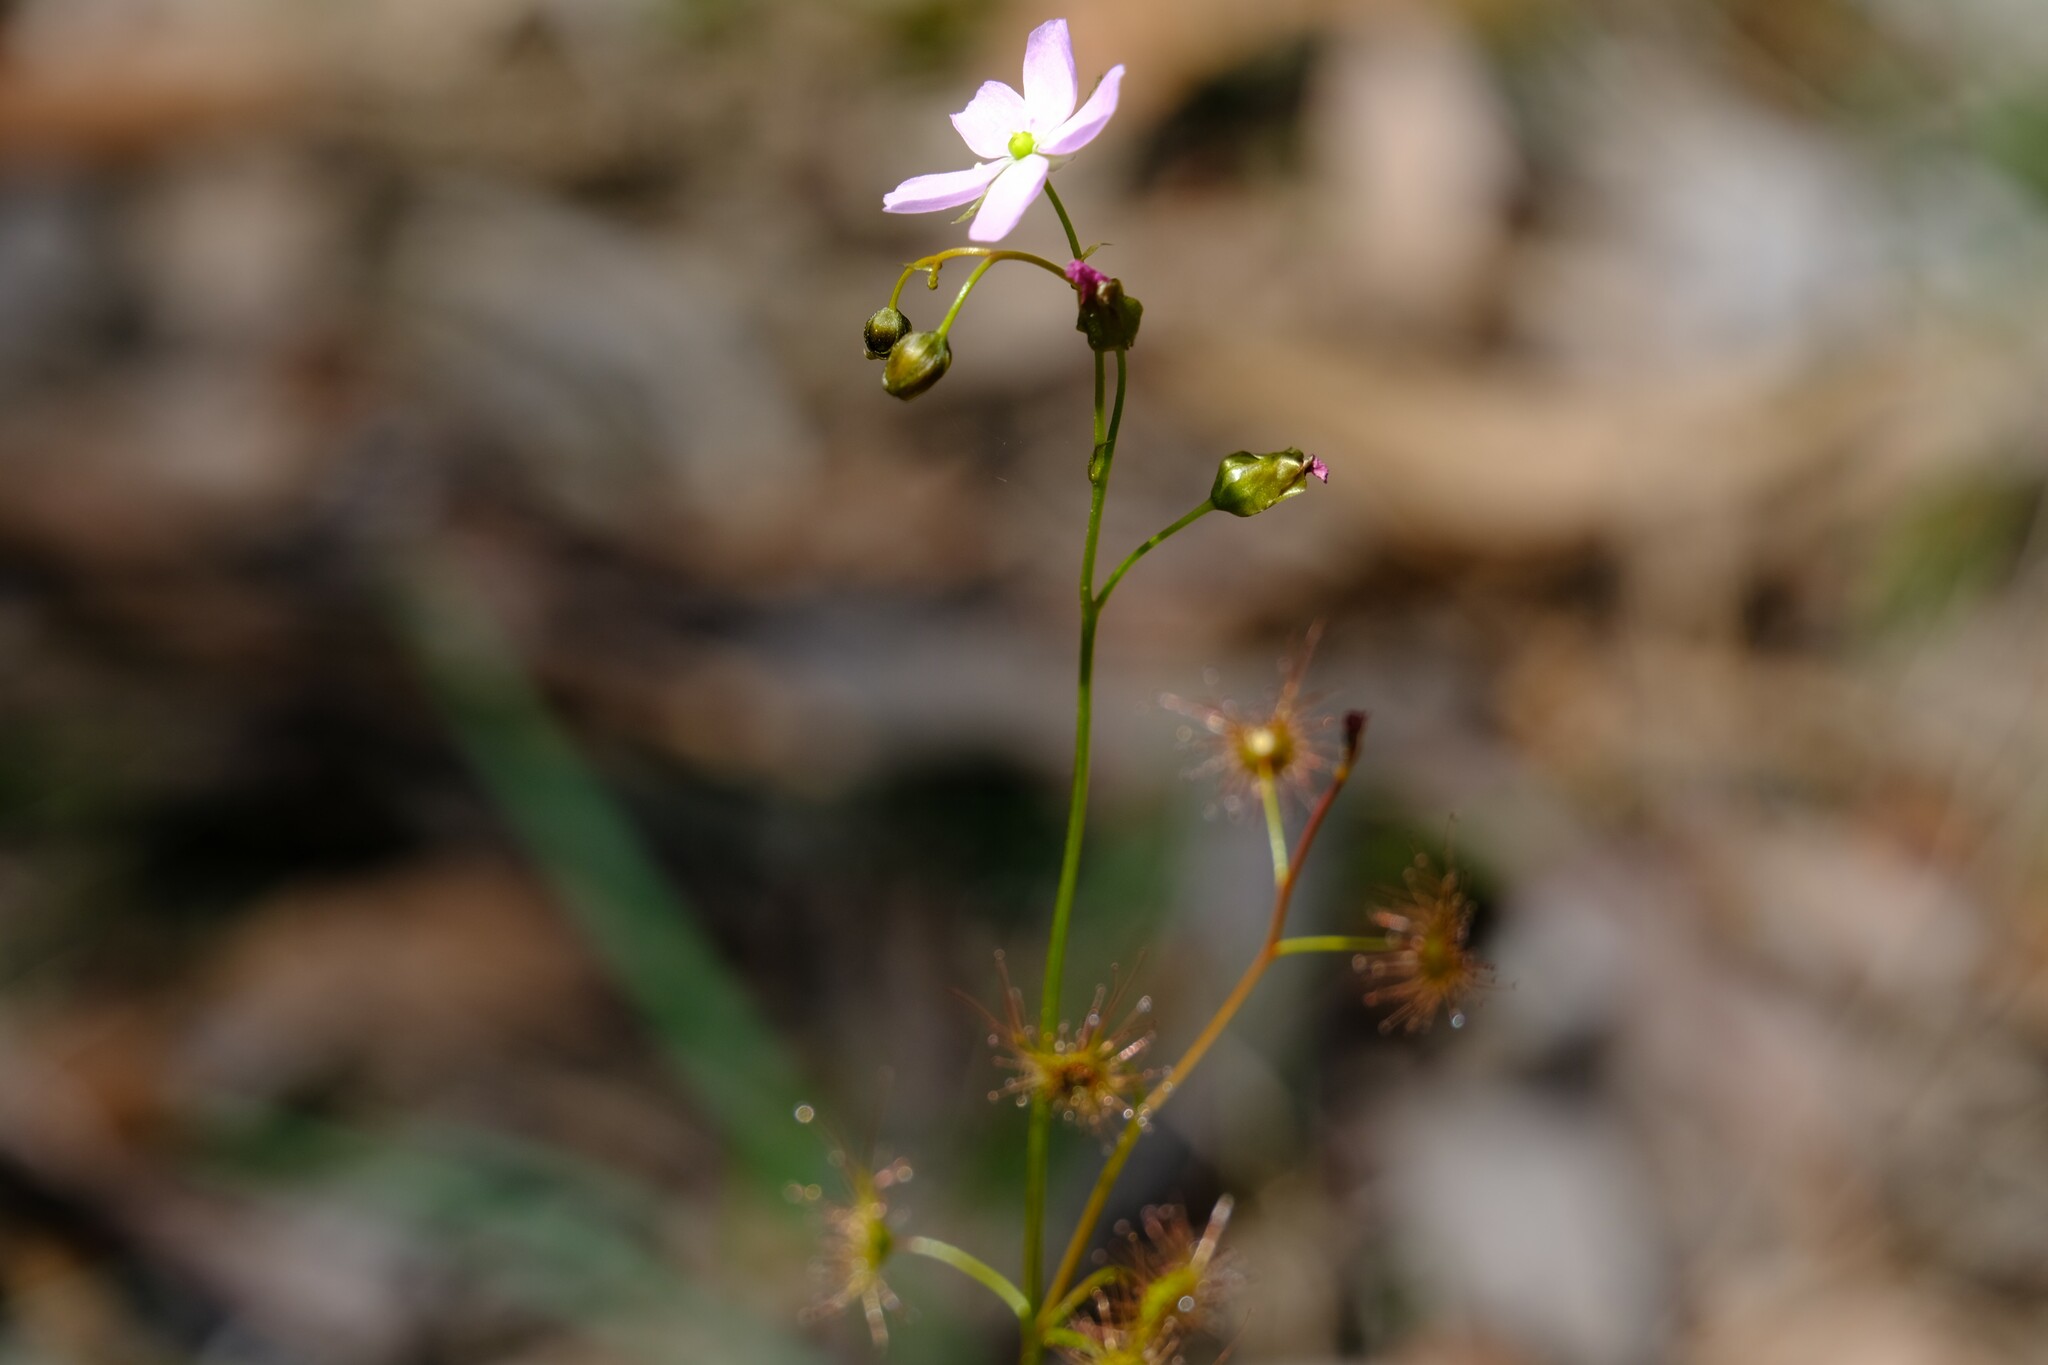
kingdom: Plantae
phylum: Tracheophyta
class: Magnoliopsida
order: Caryophyllales
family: Droseraceae
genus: Drosera
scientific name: Drosera peltata
